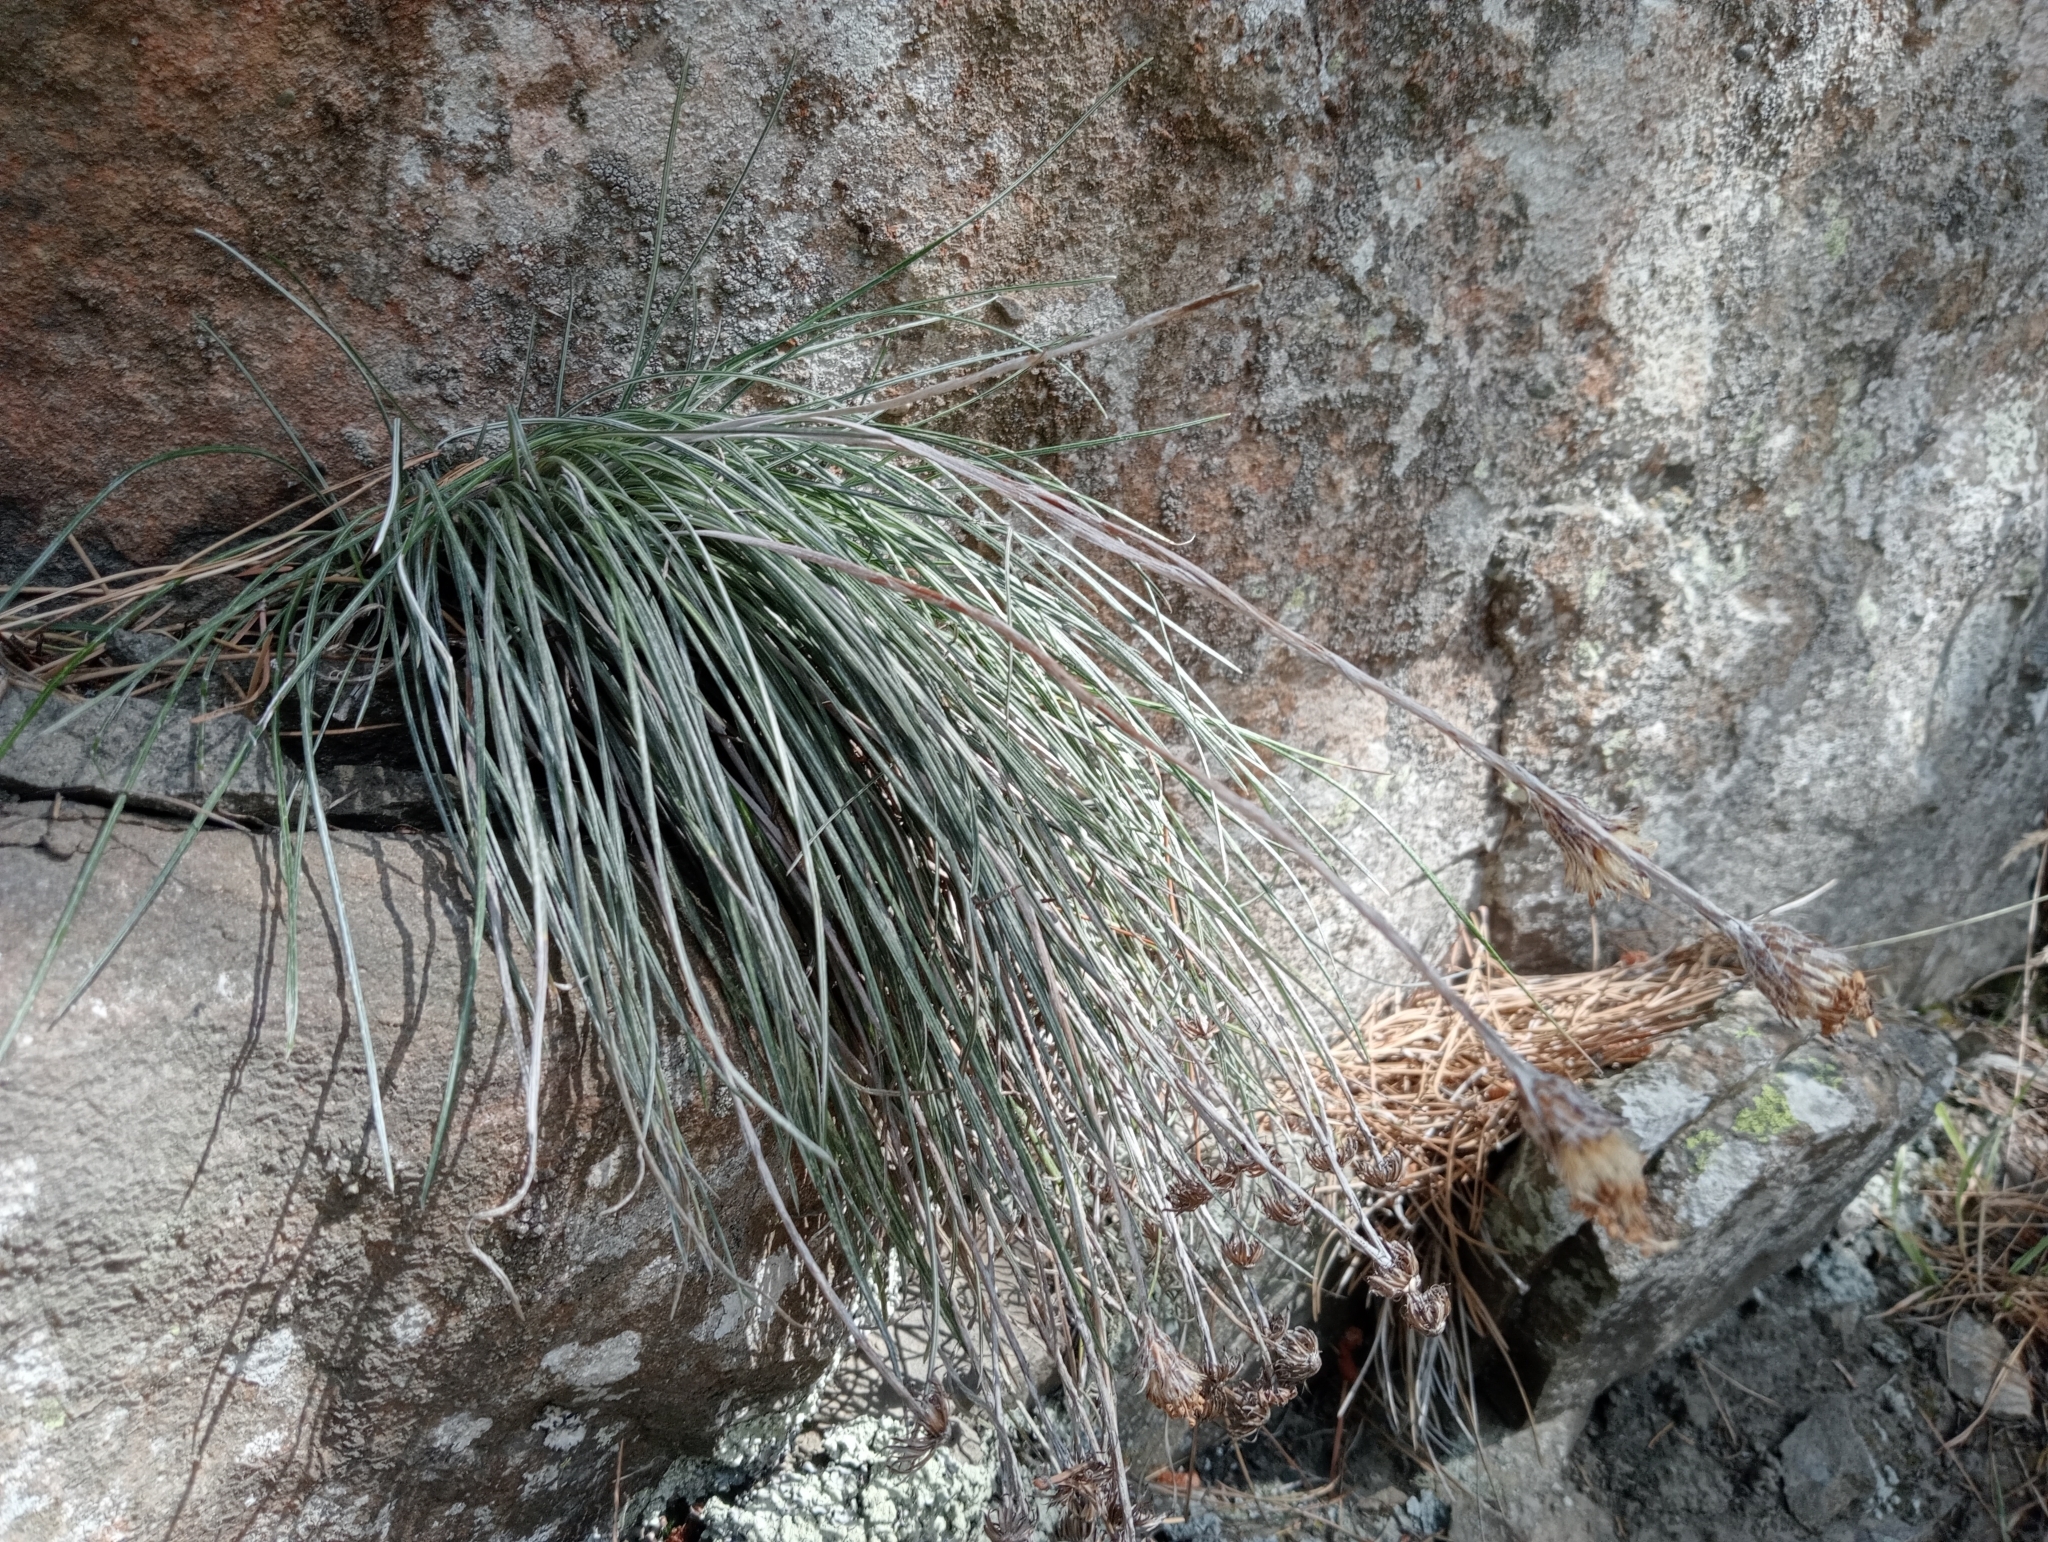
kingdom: Plantae
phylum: Tracheophyta
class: Magnoliopsida
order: Asterales
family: Asteraceae
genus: Celmisia
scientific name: Celmisia gracilenta
